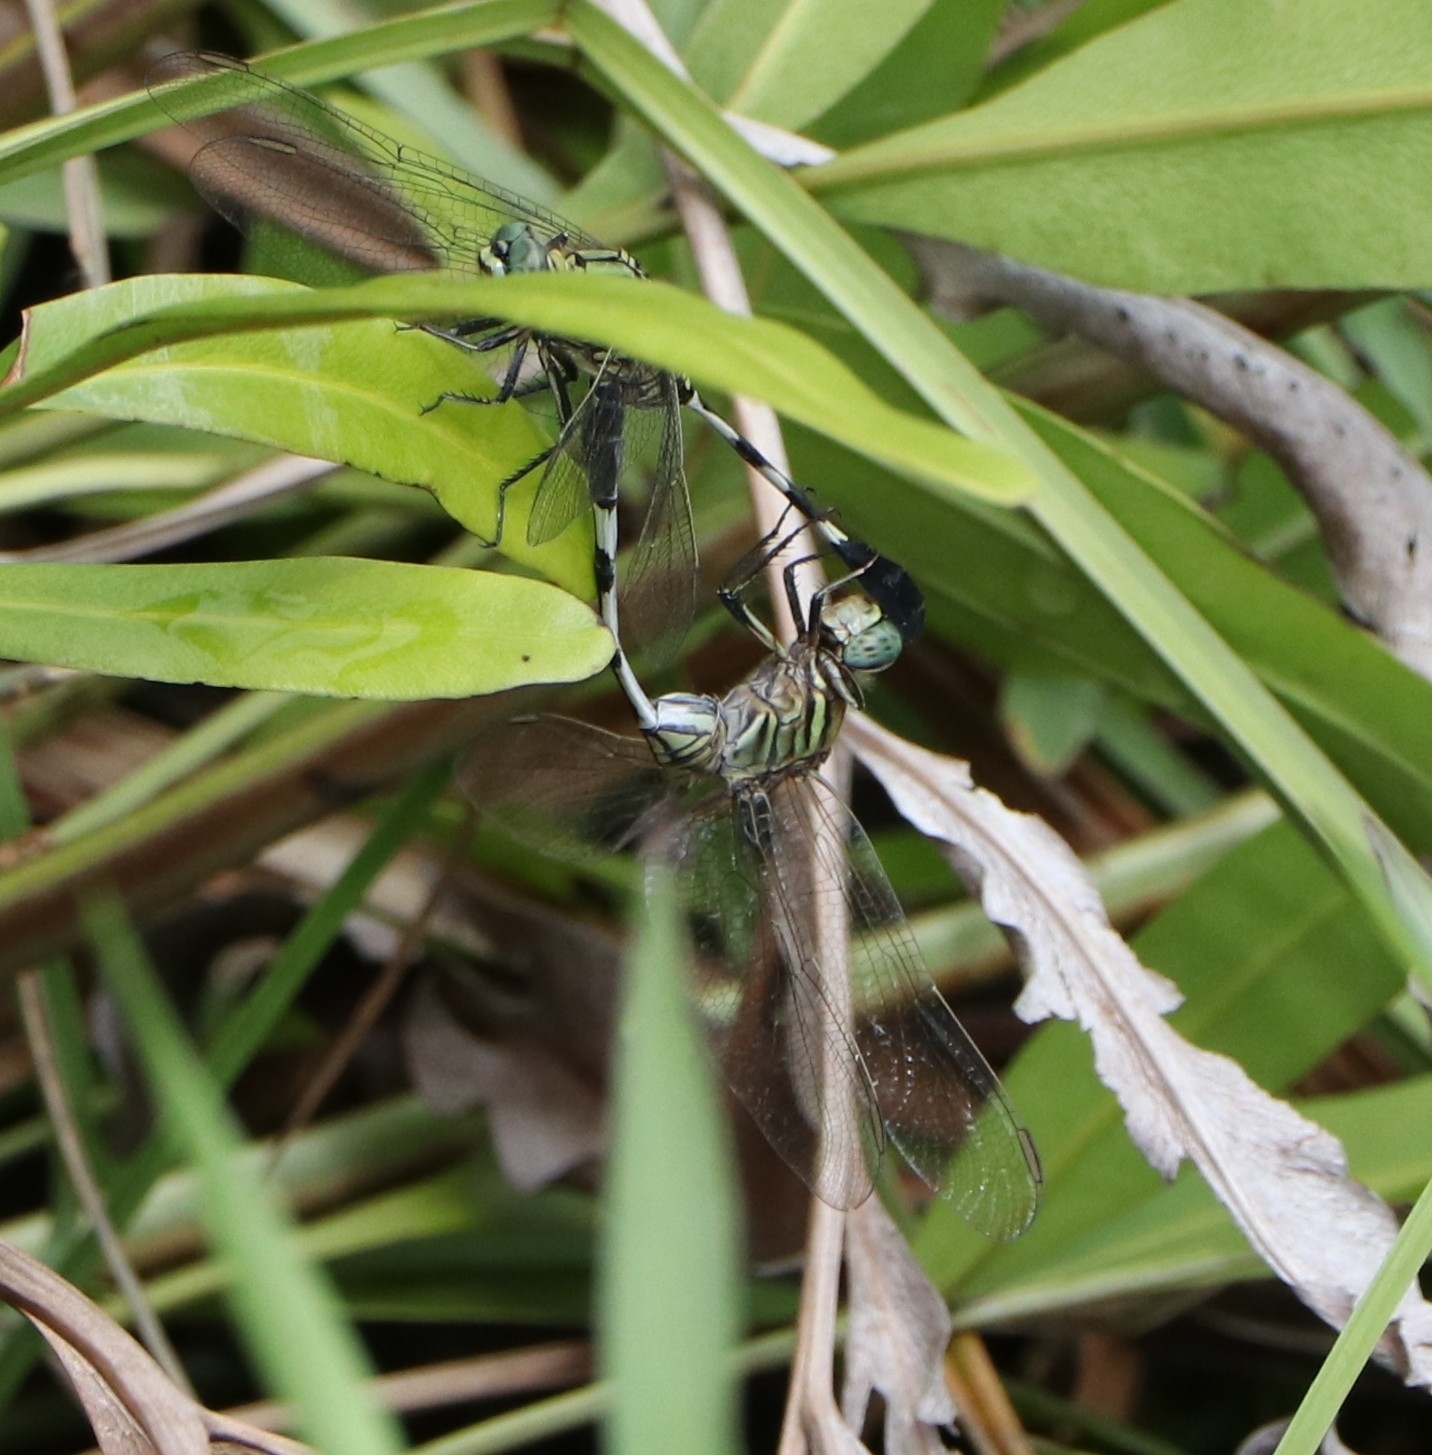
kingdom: Animalia
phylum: Arthropoda
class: Insecta
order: Odonata
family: Libellulidae
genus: Orthetrum
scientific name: Orthetrum sabina
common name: Slender skimmer
